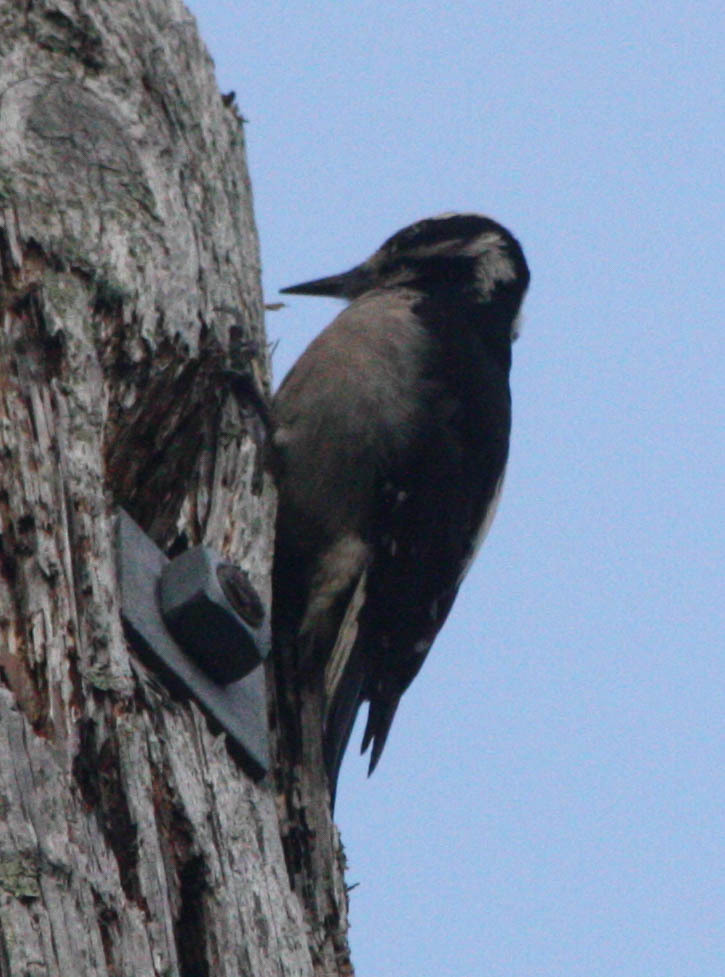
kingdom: Animalia
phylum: Chordata
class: Aves
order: Piciformes
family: Picidae
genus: Leuconotopicus
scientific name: Leuconotopicus villosus
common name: Hairy woodpecker
